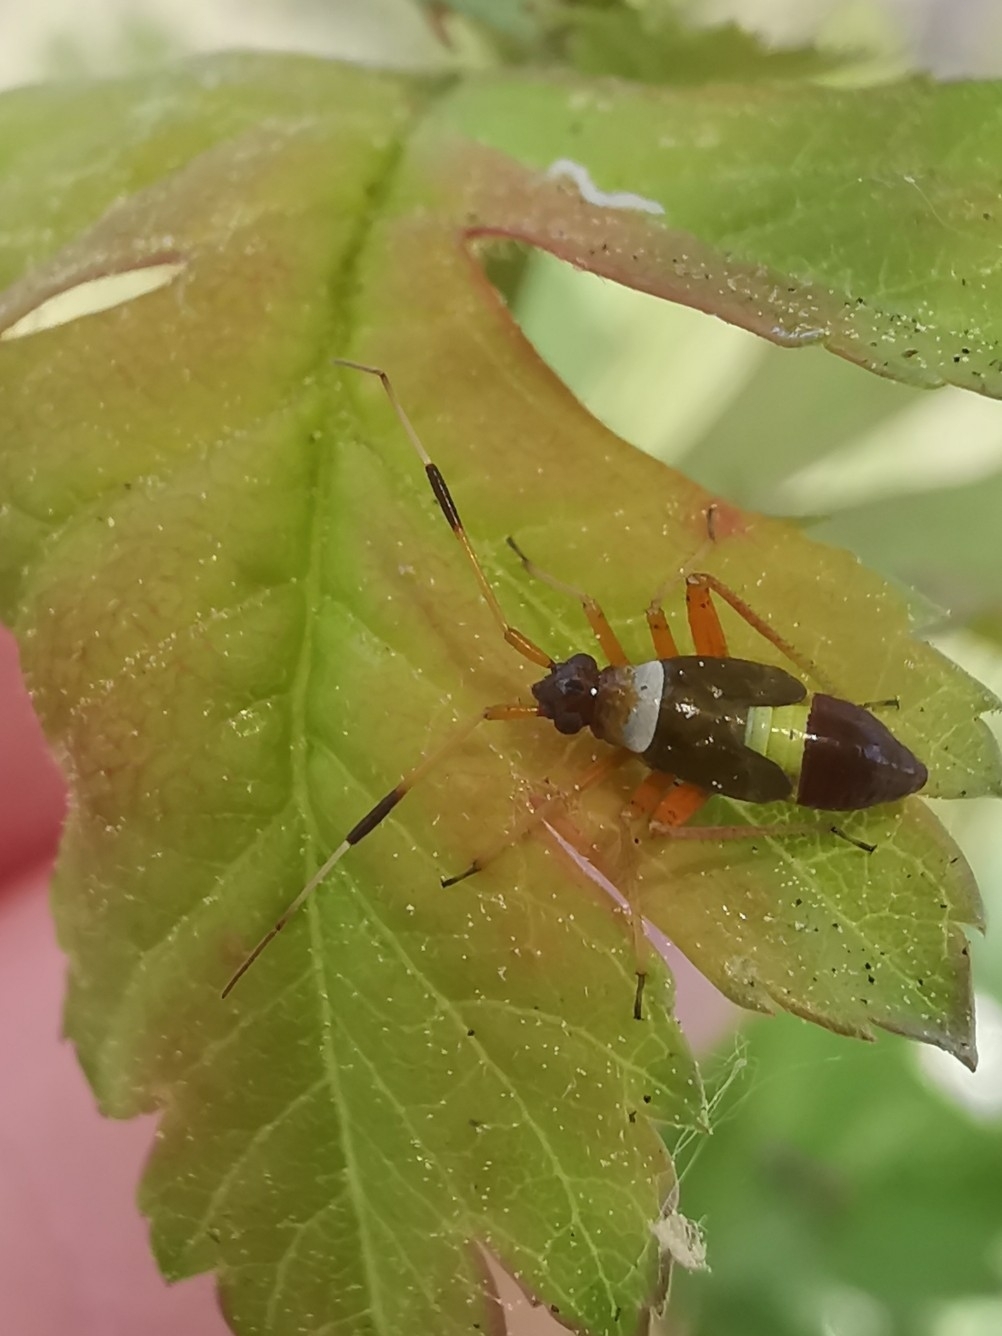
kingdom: Animalia
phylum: Arthropoda
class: Insecta
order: Hemiptera
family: Miridae
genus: Closterotomus
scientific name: Closterotomus biclavatus
